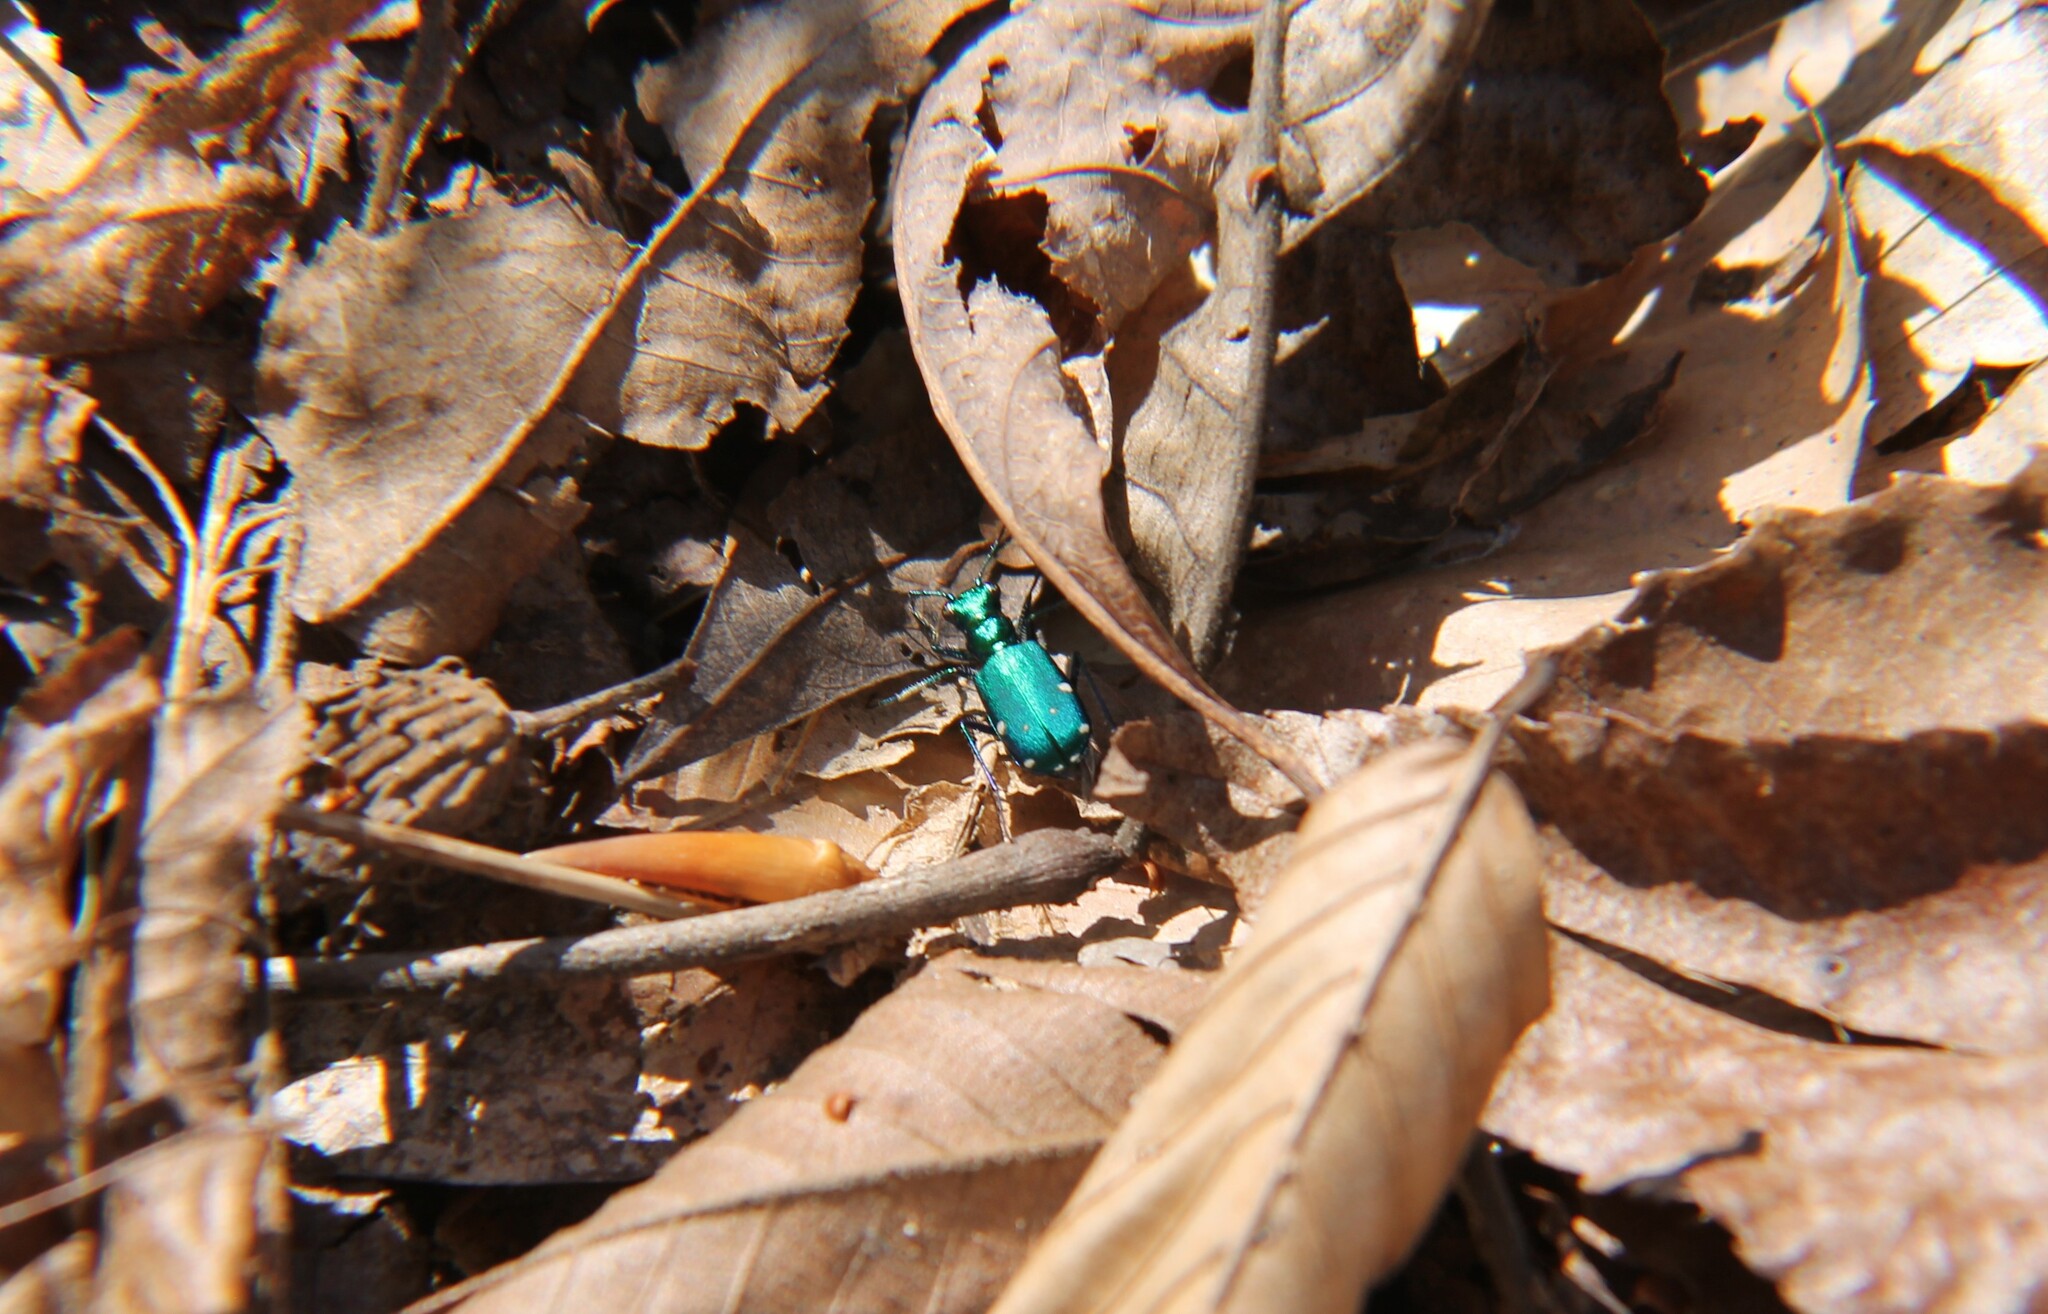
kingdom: Animalia
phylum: Arthropoda
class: Insecta
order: Coleoptera
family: Carabidae
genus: Cicindela
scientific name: Cicindela sexguttata
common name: Six-spotted tiger beetle
